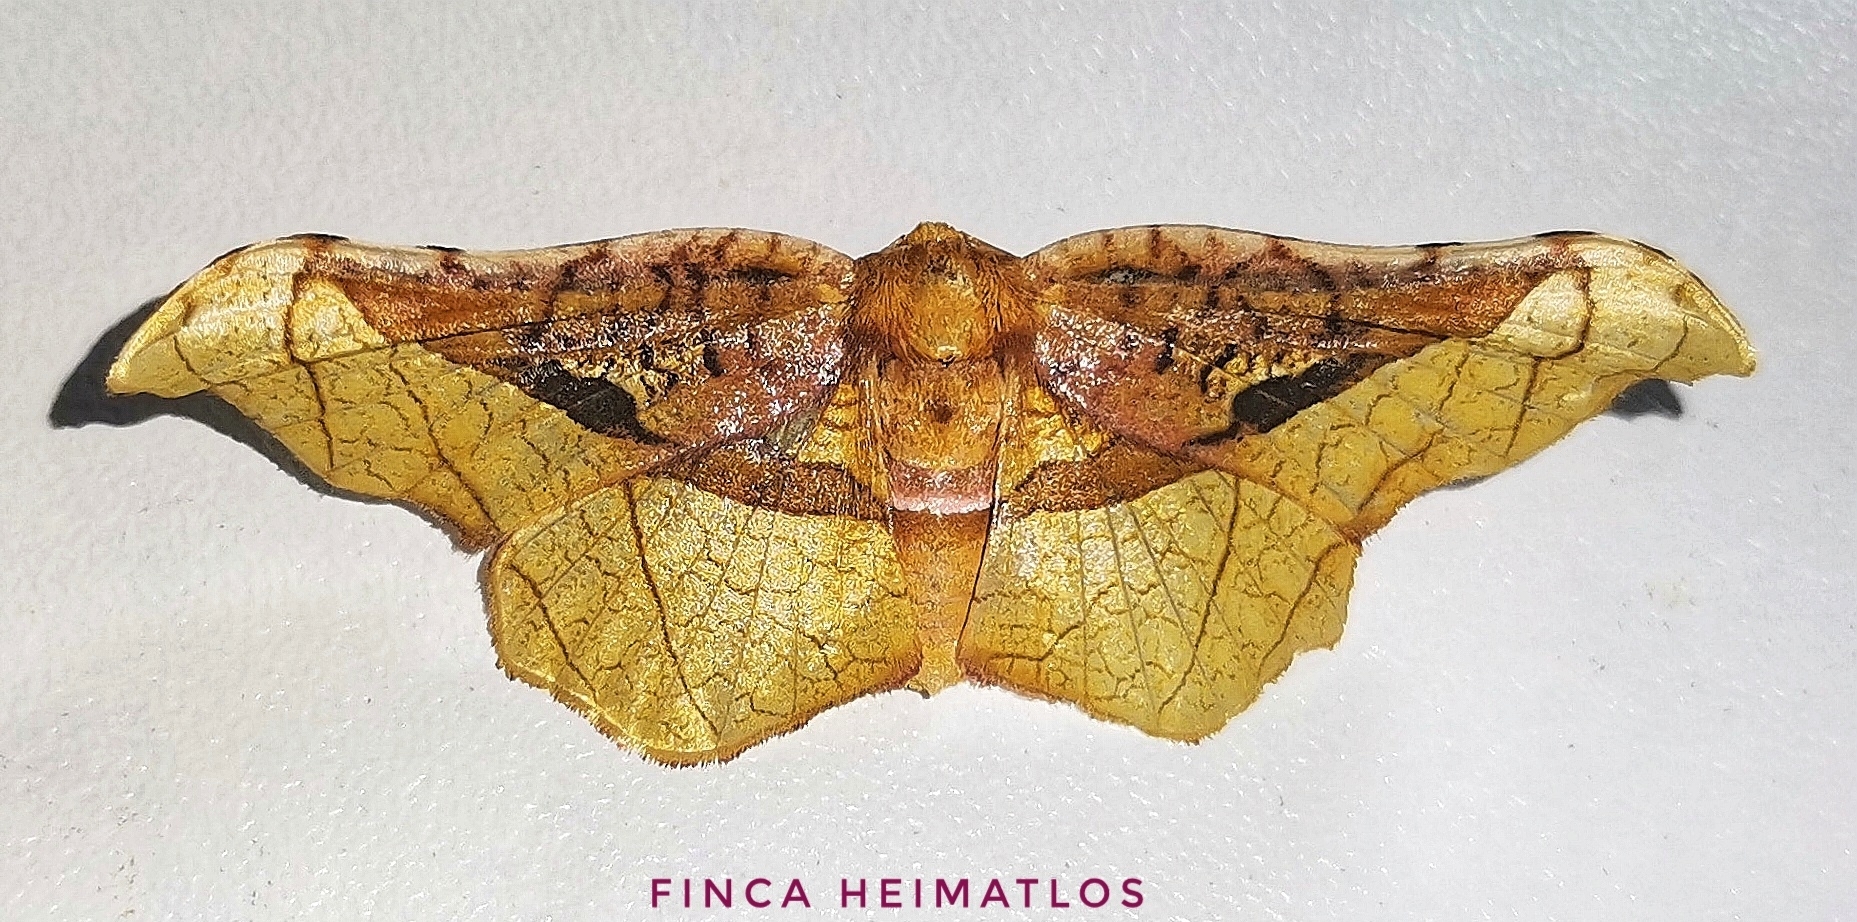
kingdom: Animalia
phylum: Arthropoda
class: Insecta
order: Lepidoptera
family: Thyrididae
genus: Belonoptera
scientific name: Belonoptera selenioides
